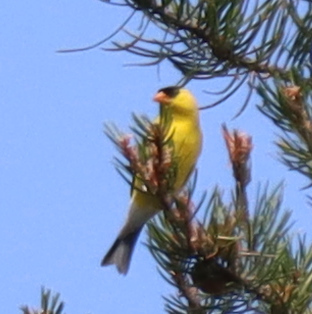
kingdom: Animalia
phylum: Chordata
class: Aves
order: Passeriformes
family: Fringillidae
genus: Spinus
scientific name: Spinus tristis
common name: American goldfinch
